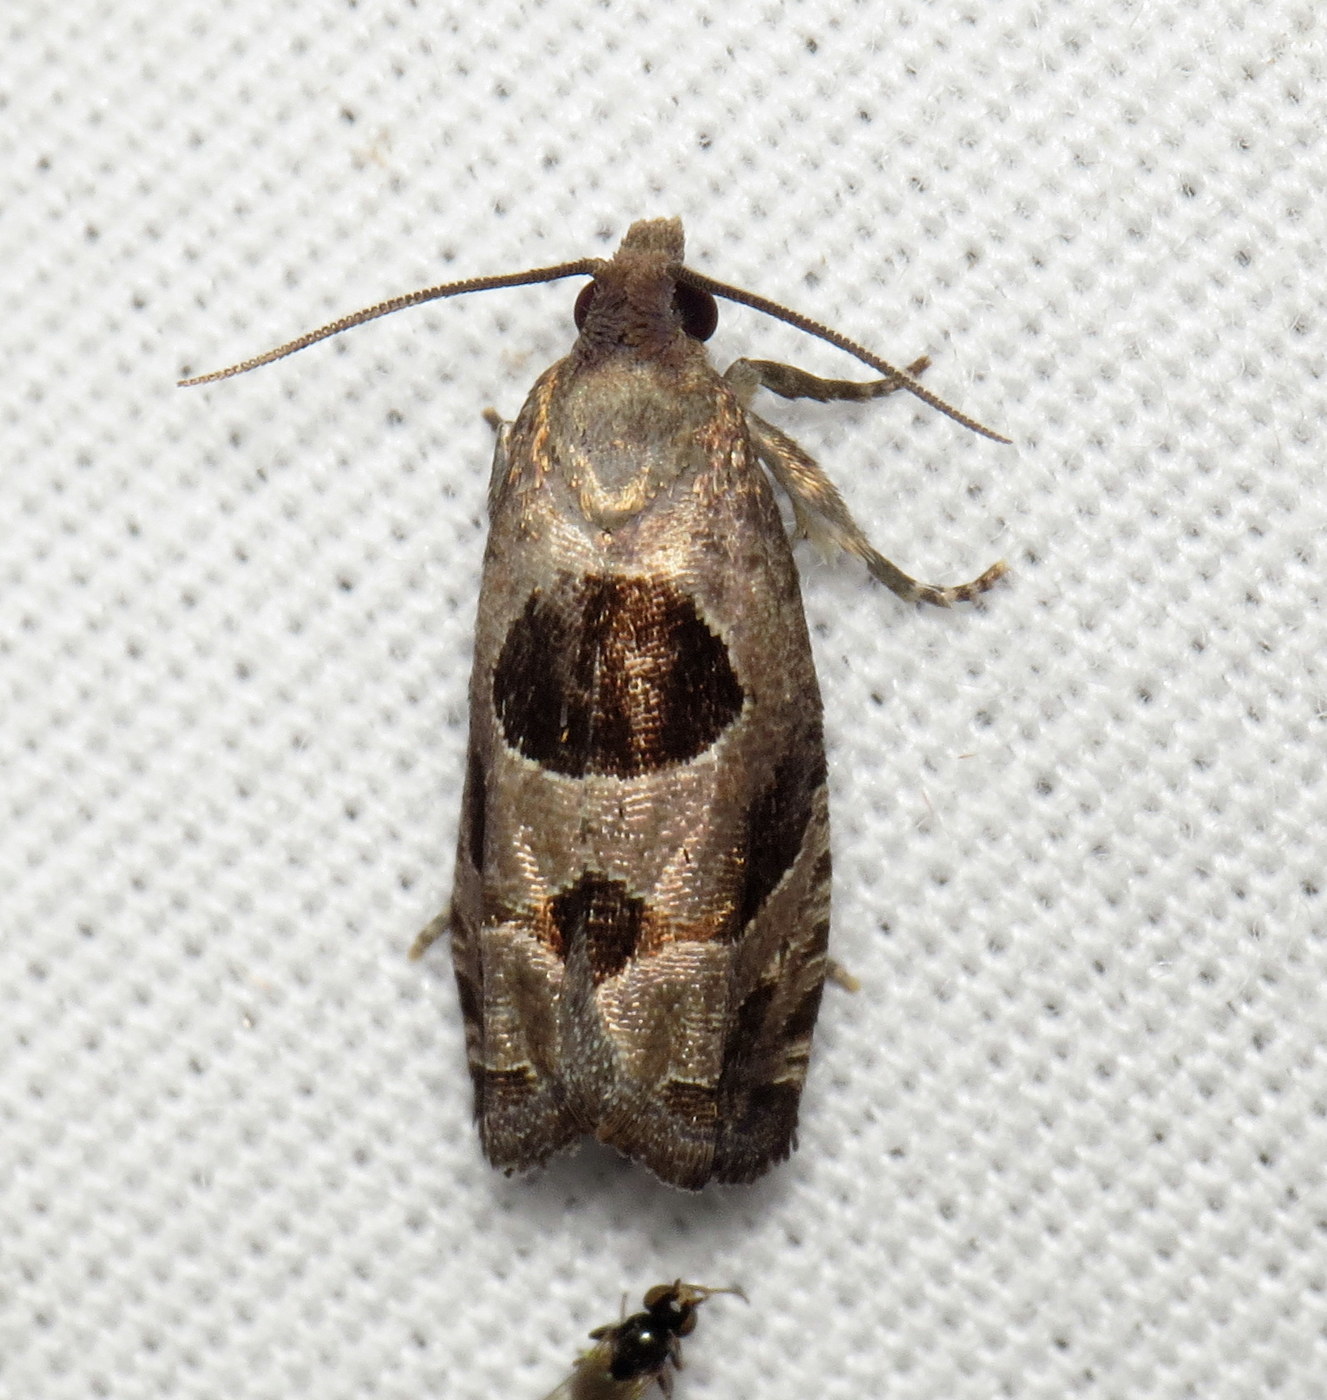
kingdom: Animalia
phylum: Arthropoda
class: Insecta
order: Lepidoptera
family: Tortricidae
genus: Epiblema
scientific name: Epiblema brightonana
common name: Brighton's epiblema moth
